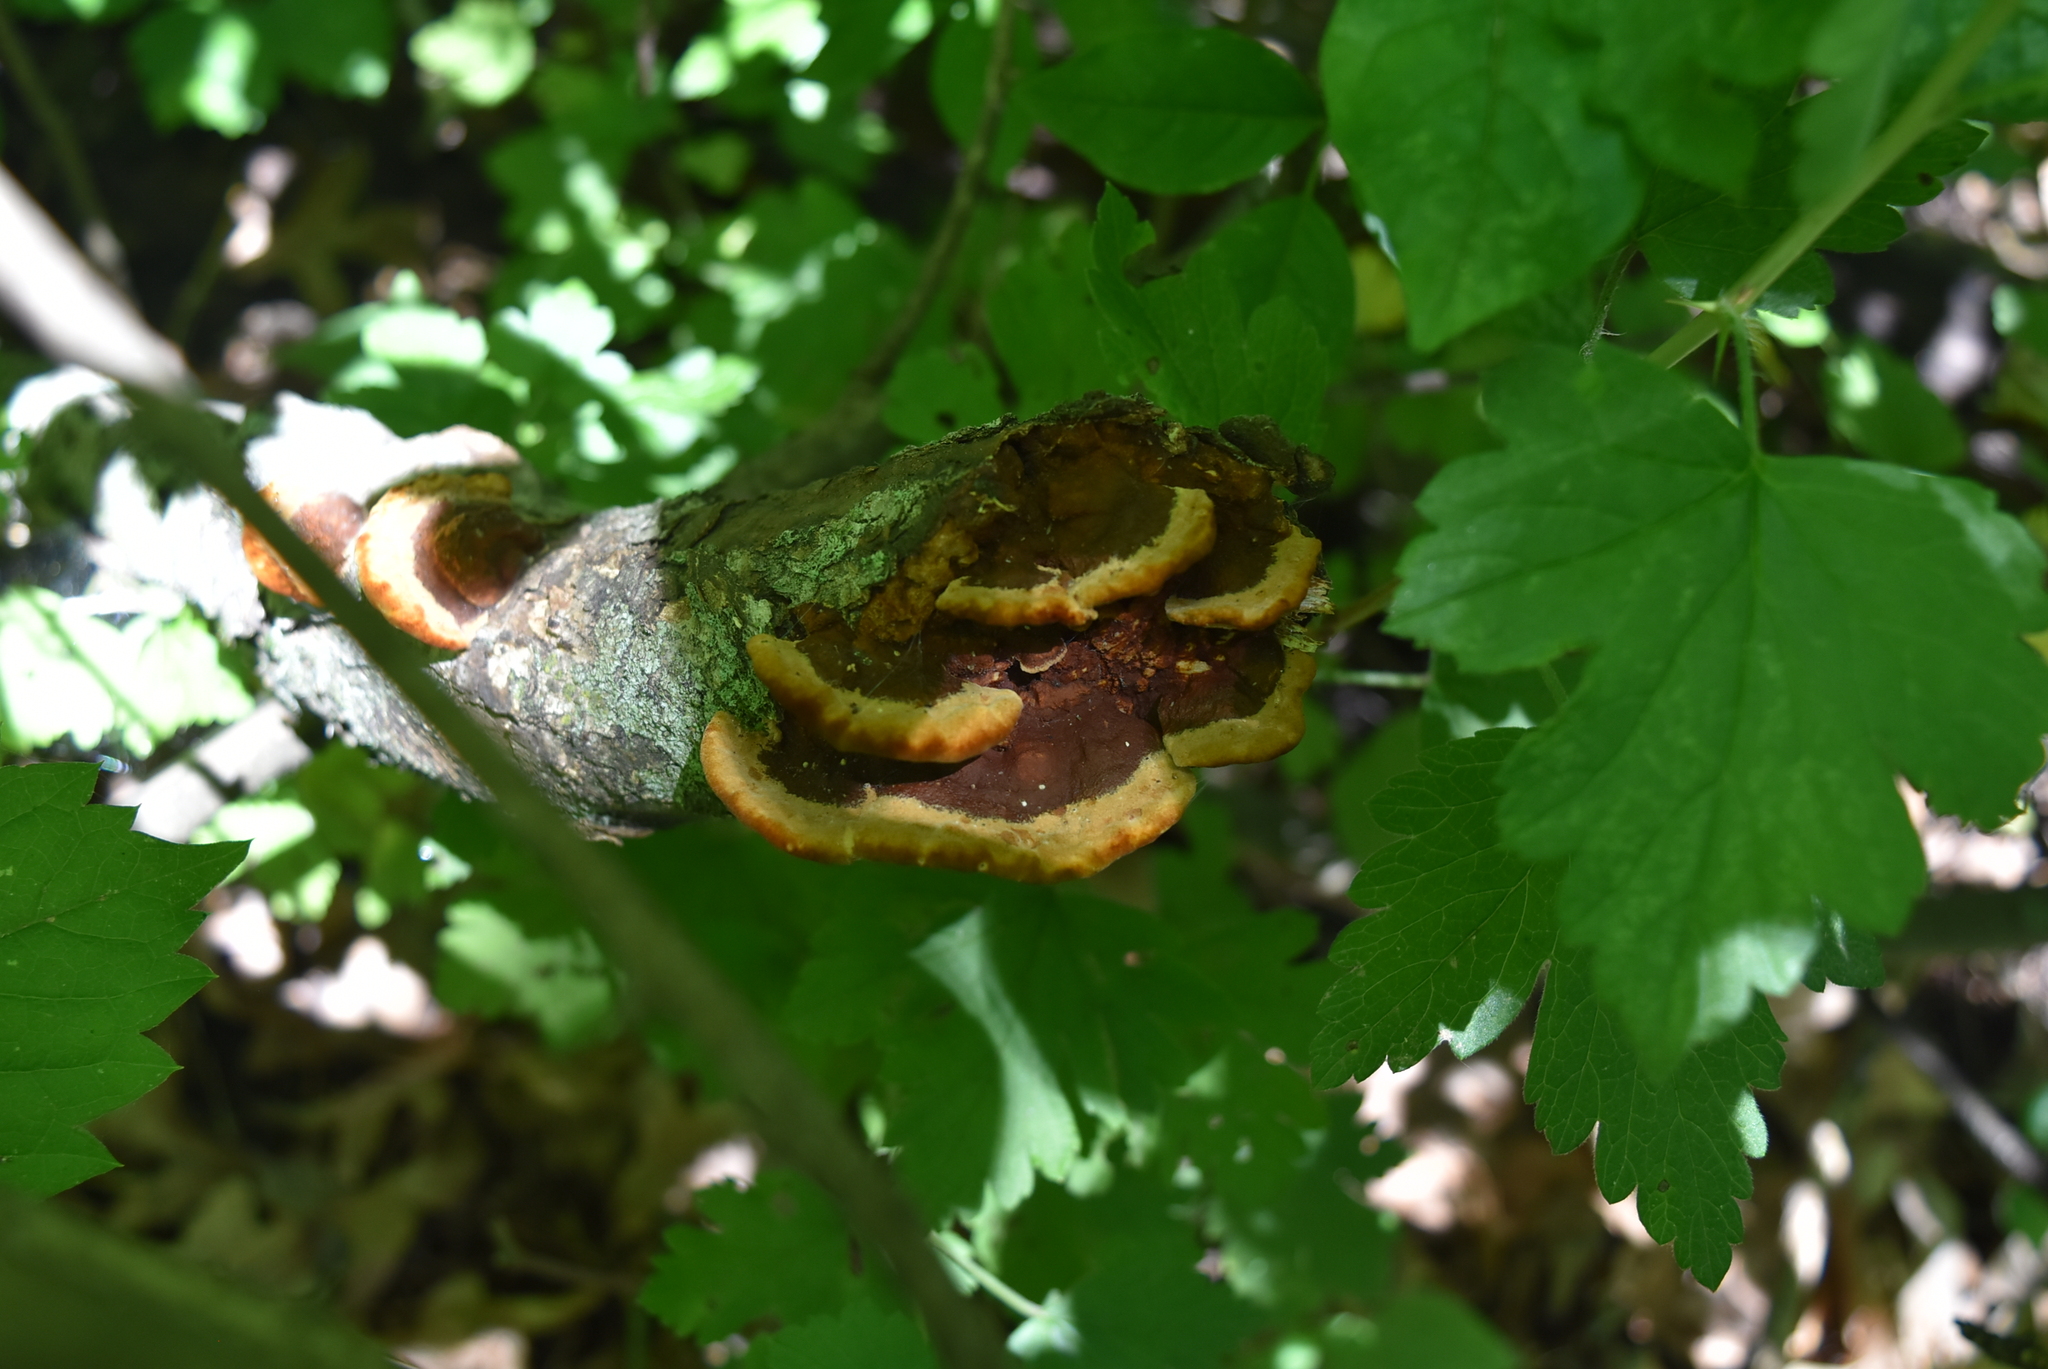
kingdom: Fungi
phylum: Basidiomycota
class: Agaricomycetes
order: Hymenochaetales
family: Hymenochaetaceae
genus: Phellinus
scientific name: Phellinus gilvus
